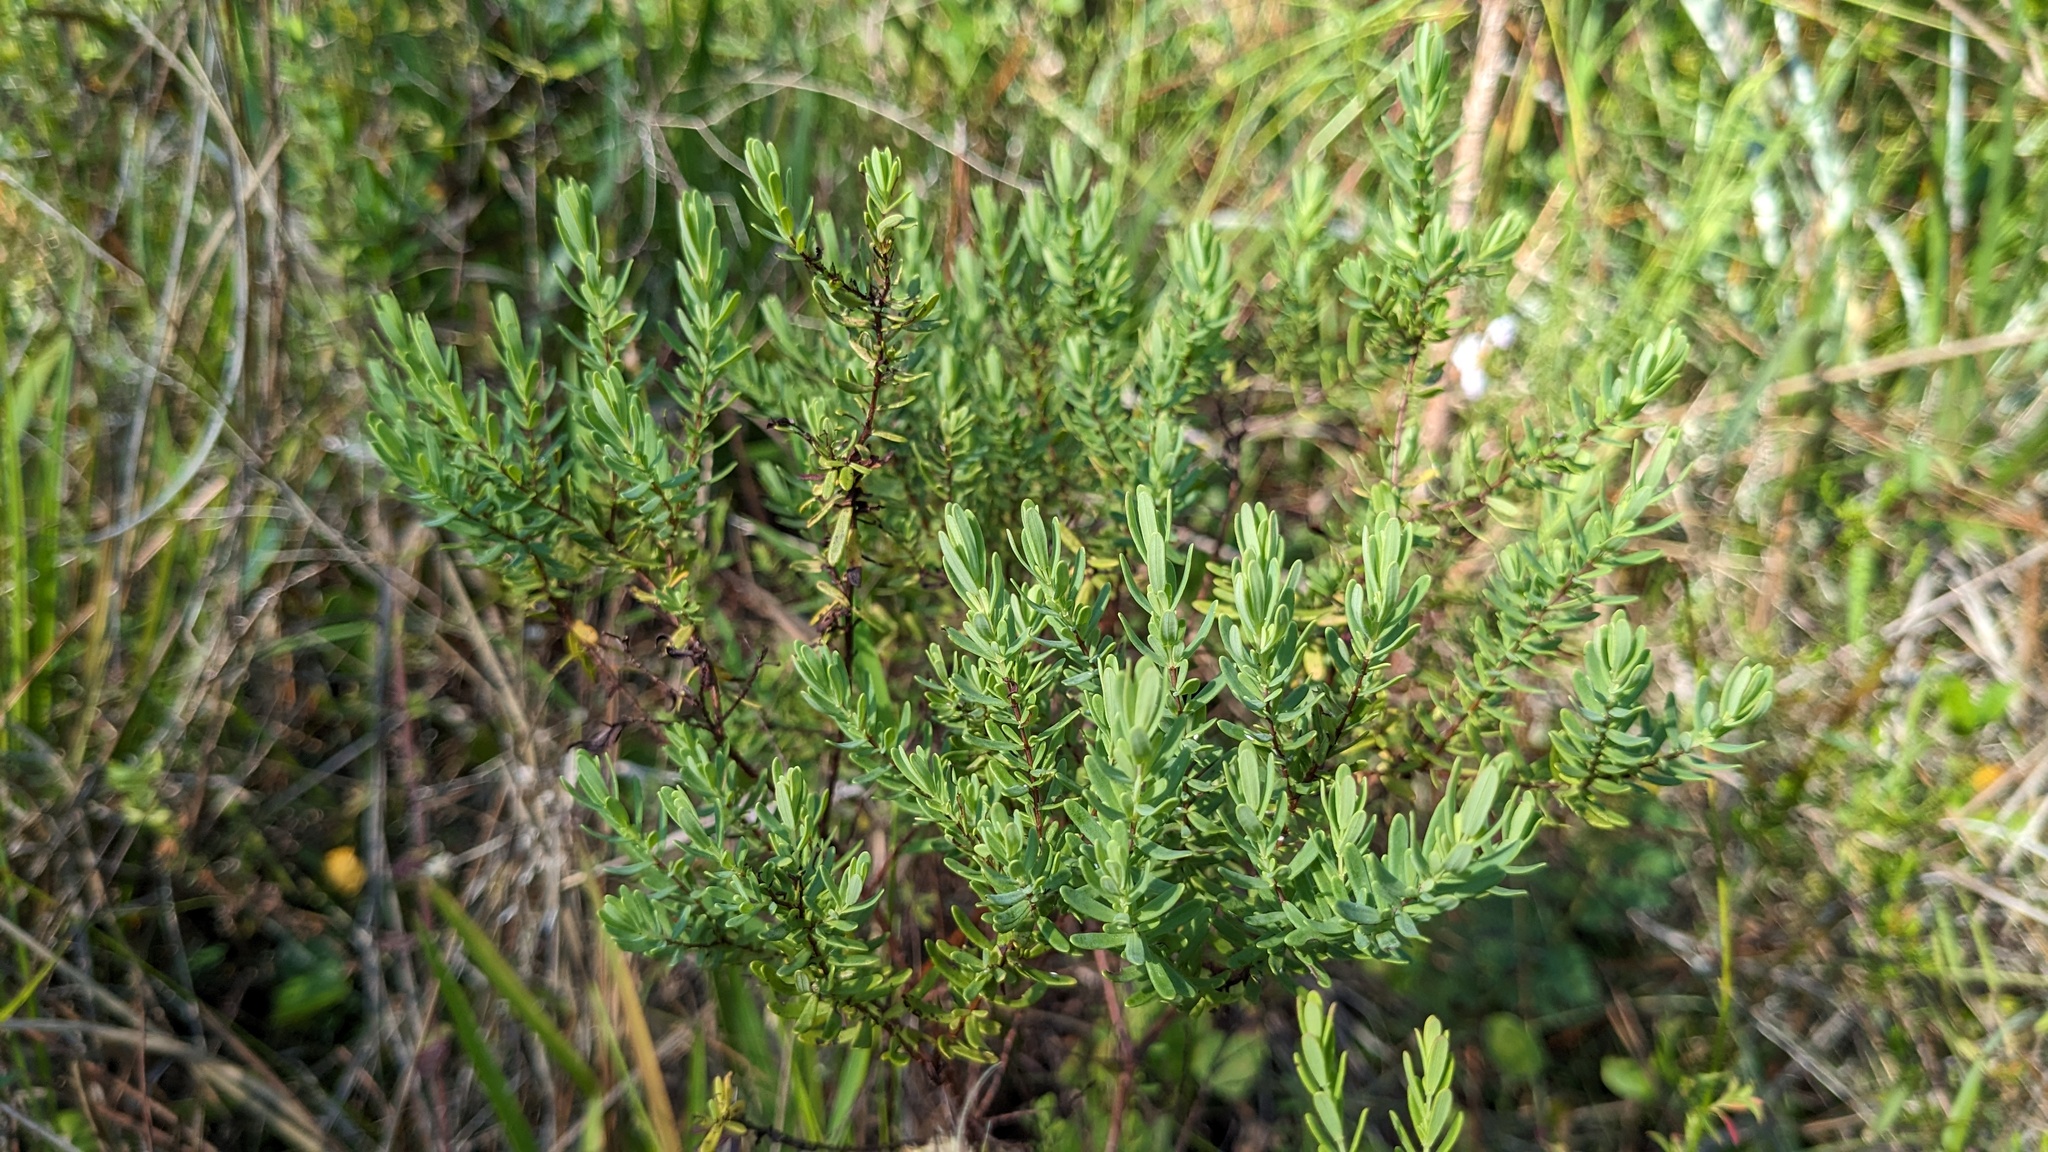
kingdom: Plantae
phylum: Tracheophyta
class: Magnoliopsida
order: Malpighiales
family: Hypericaceae
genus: Hypericum
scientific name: Hypericum microsepalum
